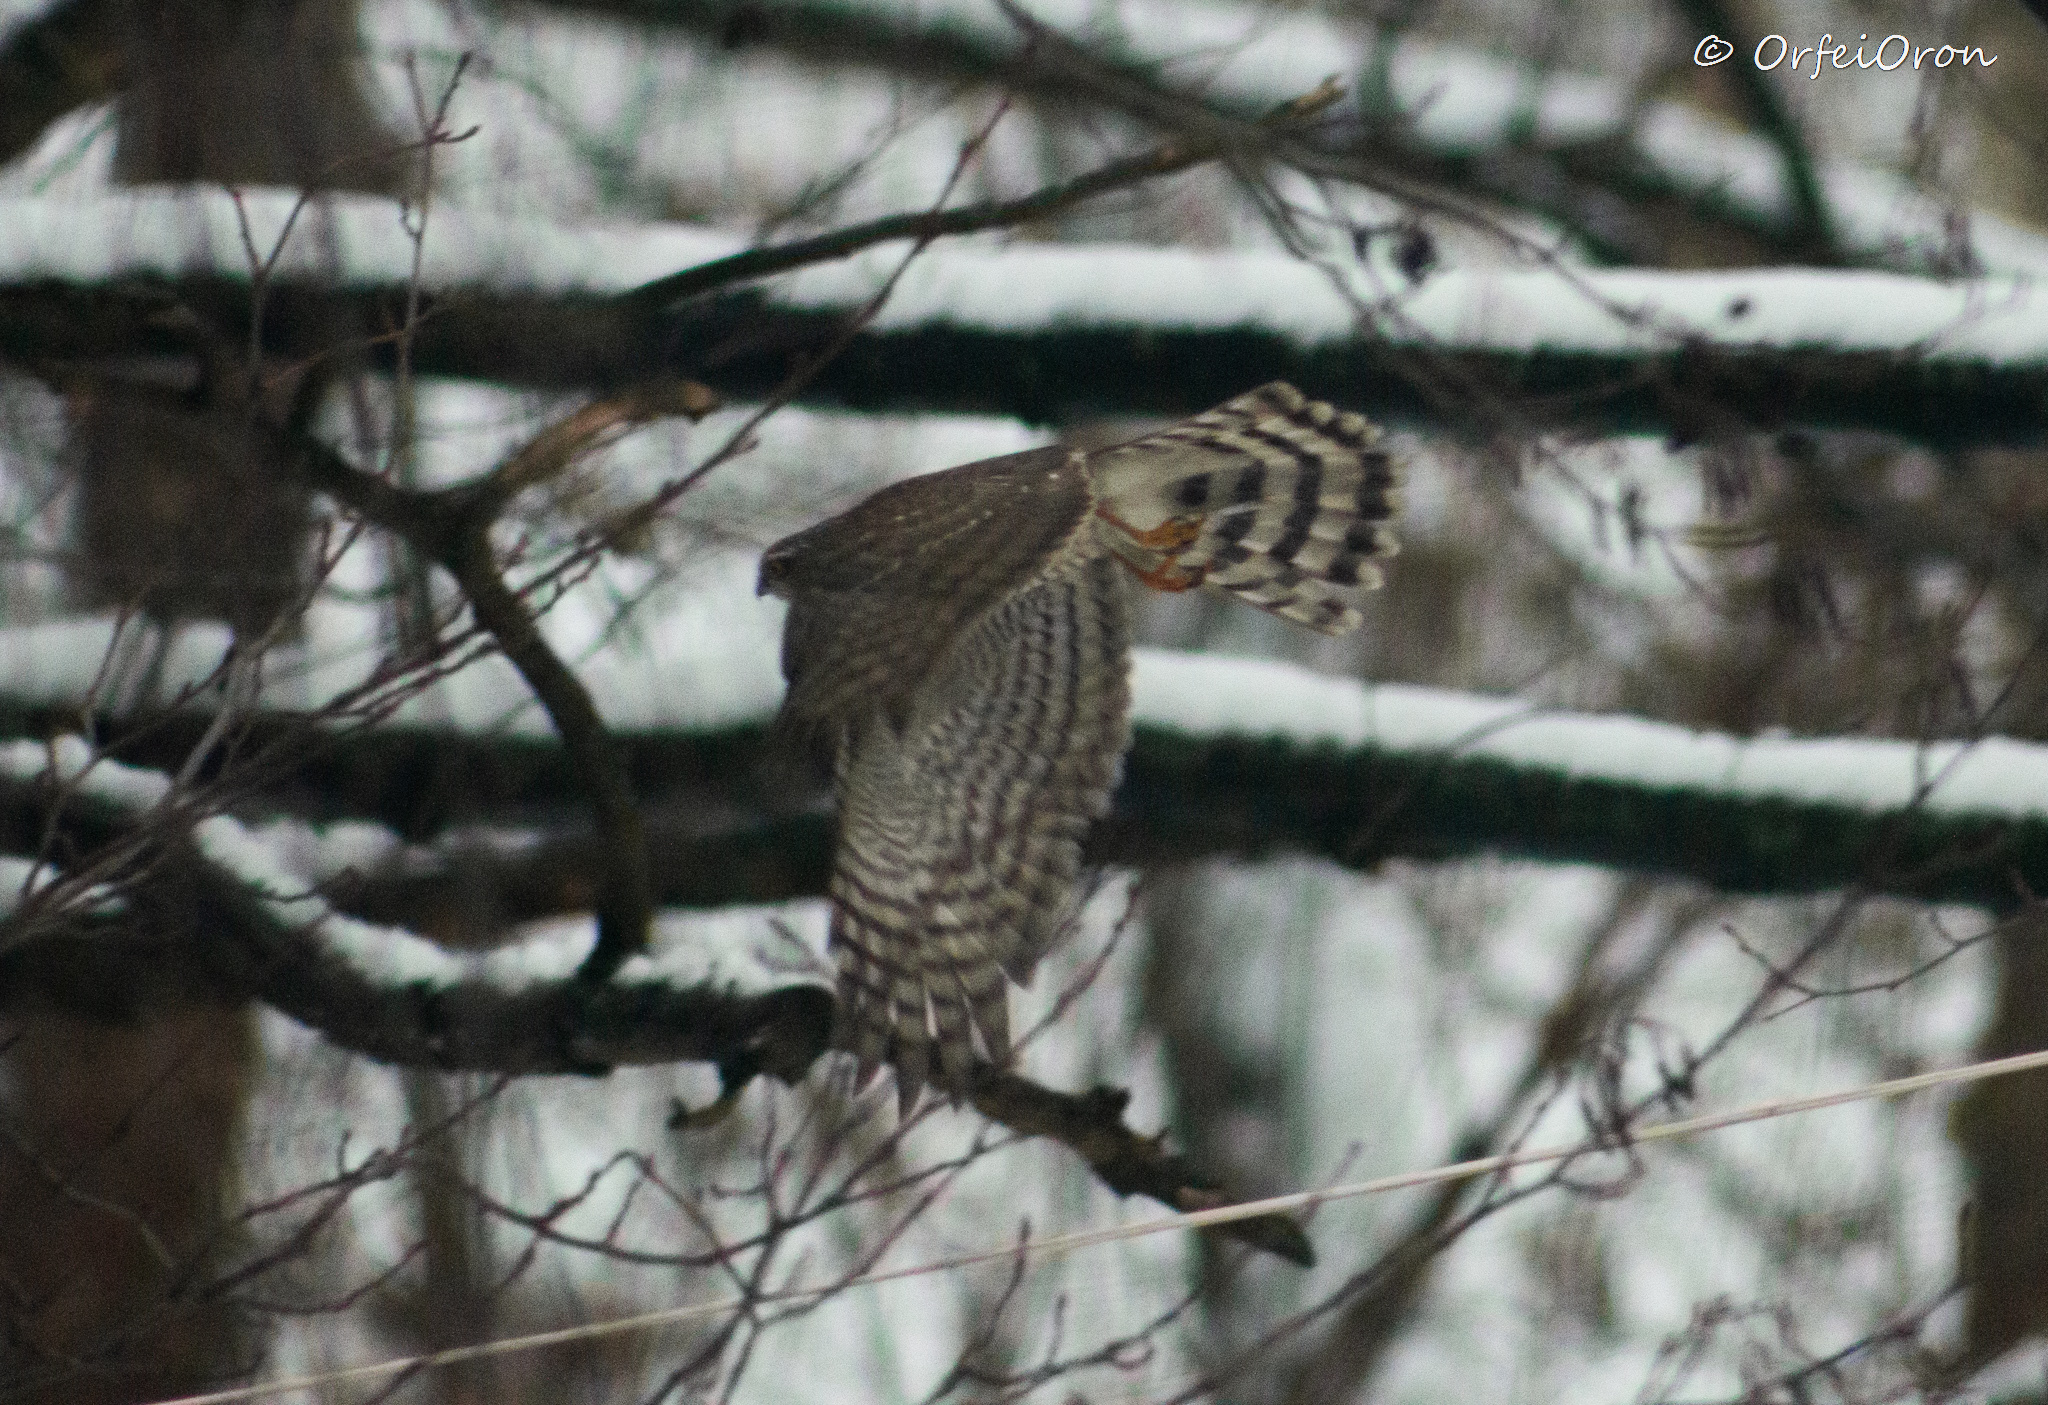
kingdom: Animalia
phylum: Chordata
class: Aves
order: Accipitriformes
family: Accipitridae
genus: Accipiter
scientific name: Accipiter nisus
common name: Eurasian sparrowhawk
